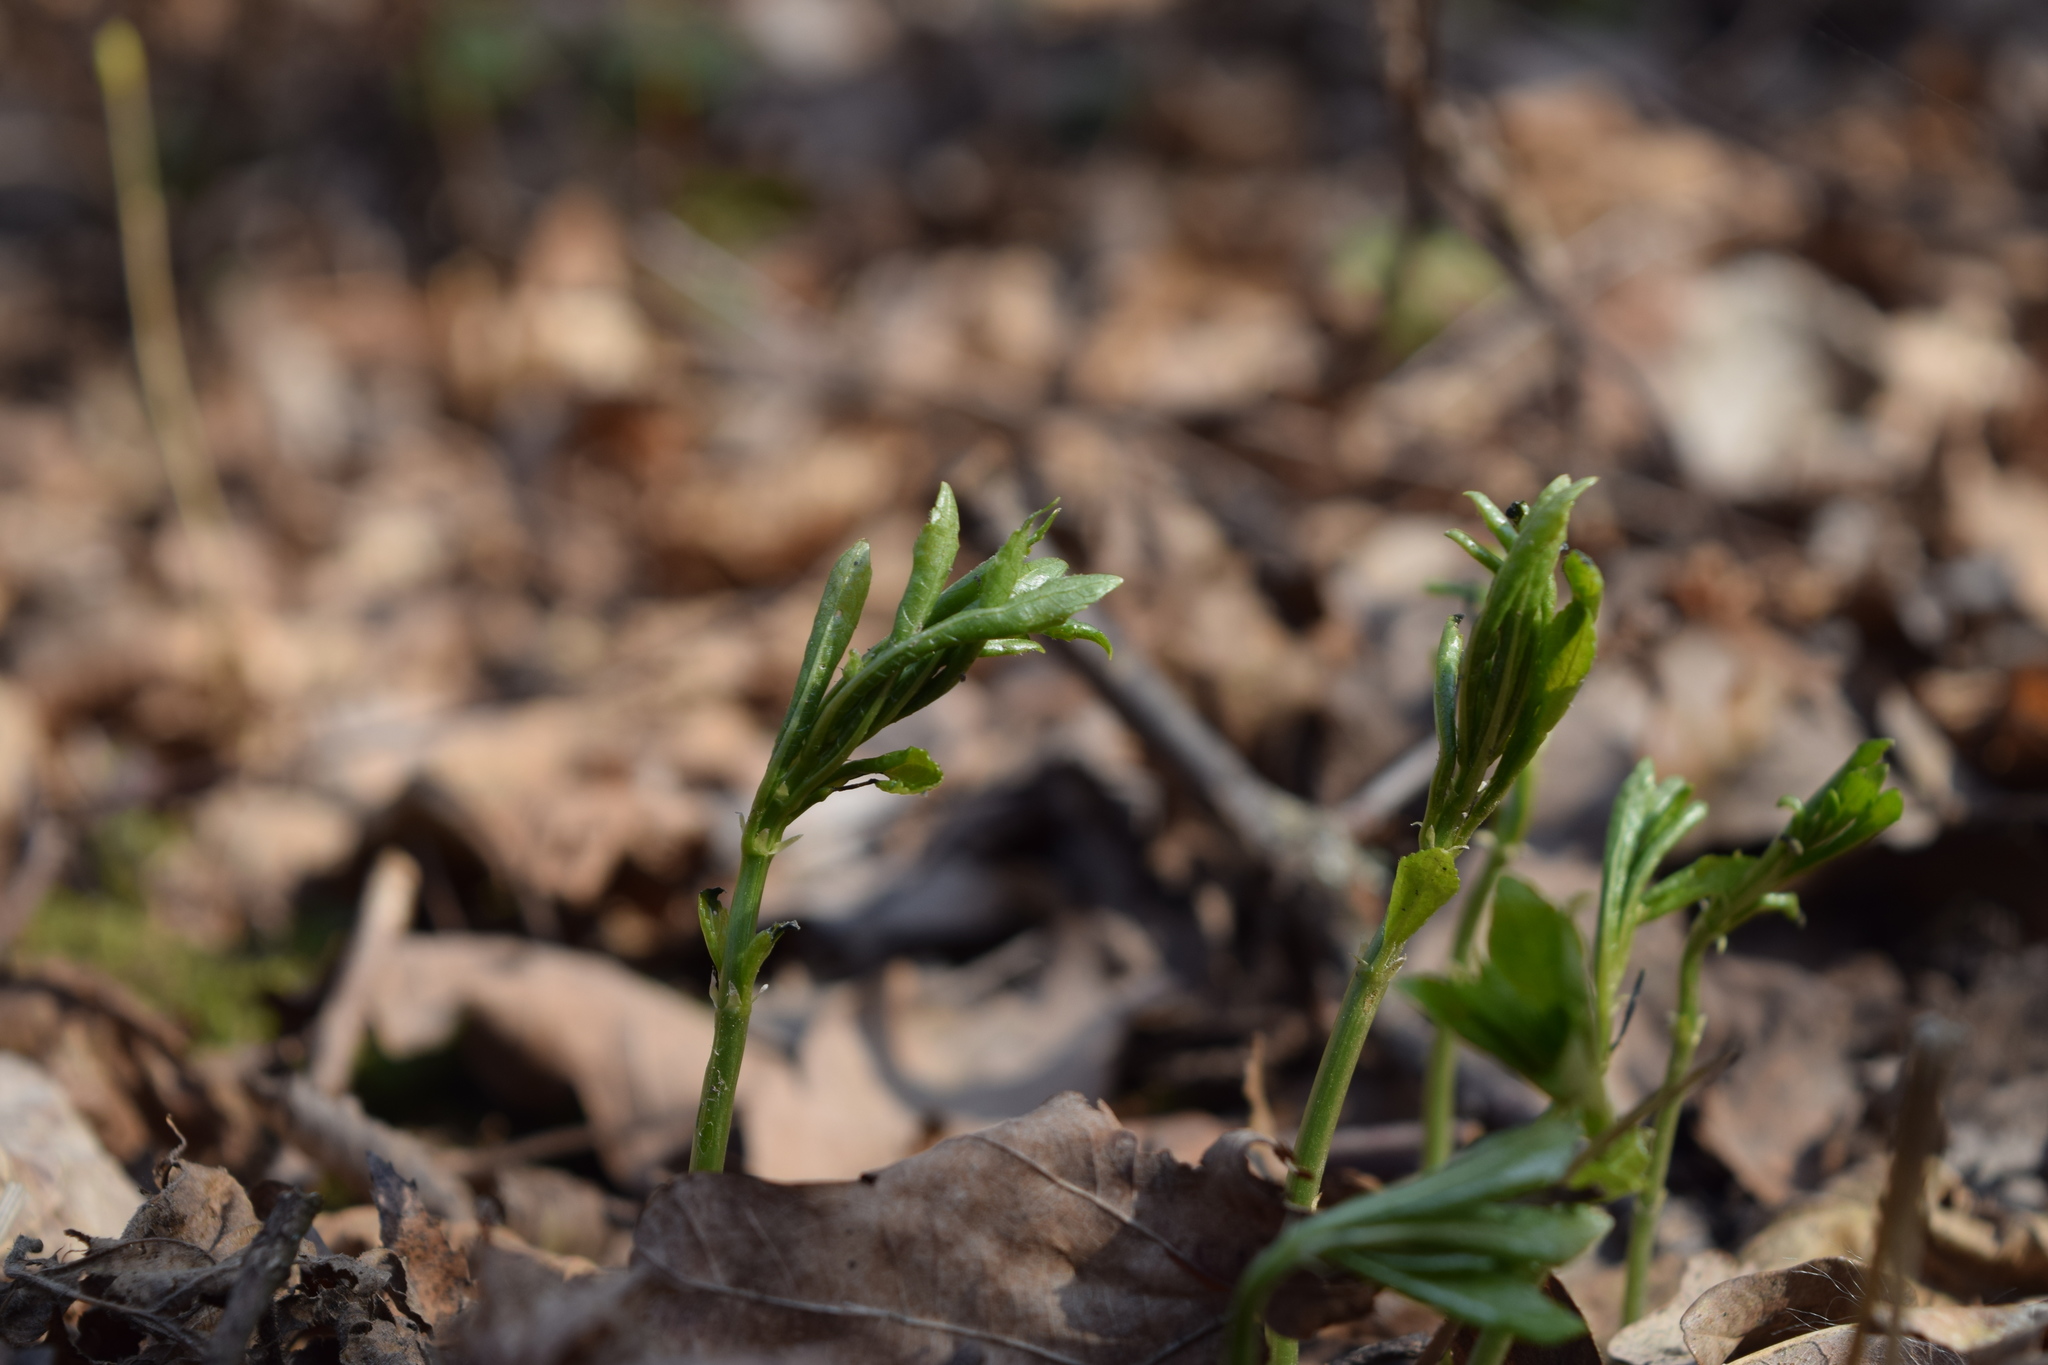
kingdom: Plantae
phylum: Tracheophyta
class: Magnoliopsida
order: Malpighiales
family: Euphorbiaceae
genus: Mercurialis
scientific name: Mercurialis perennis
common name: Dog mercury
